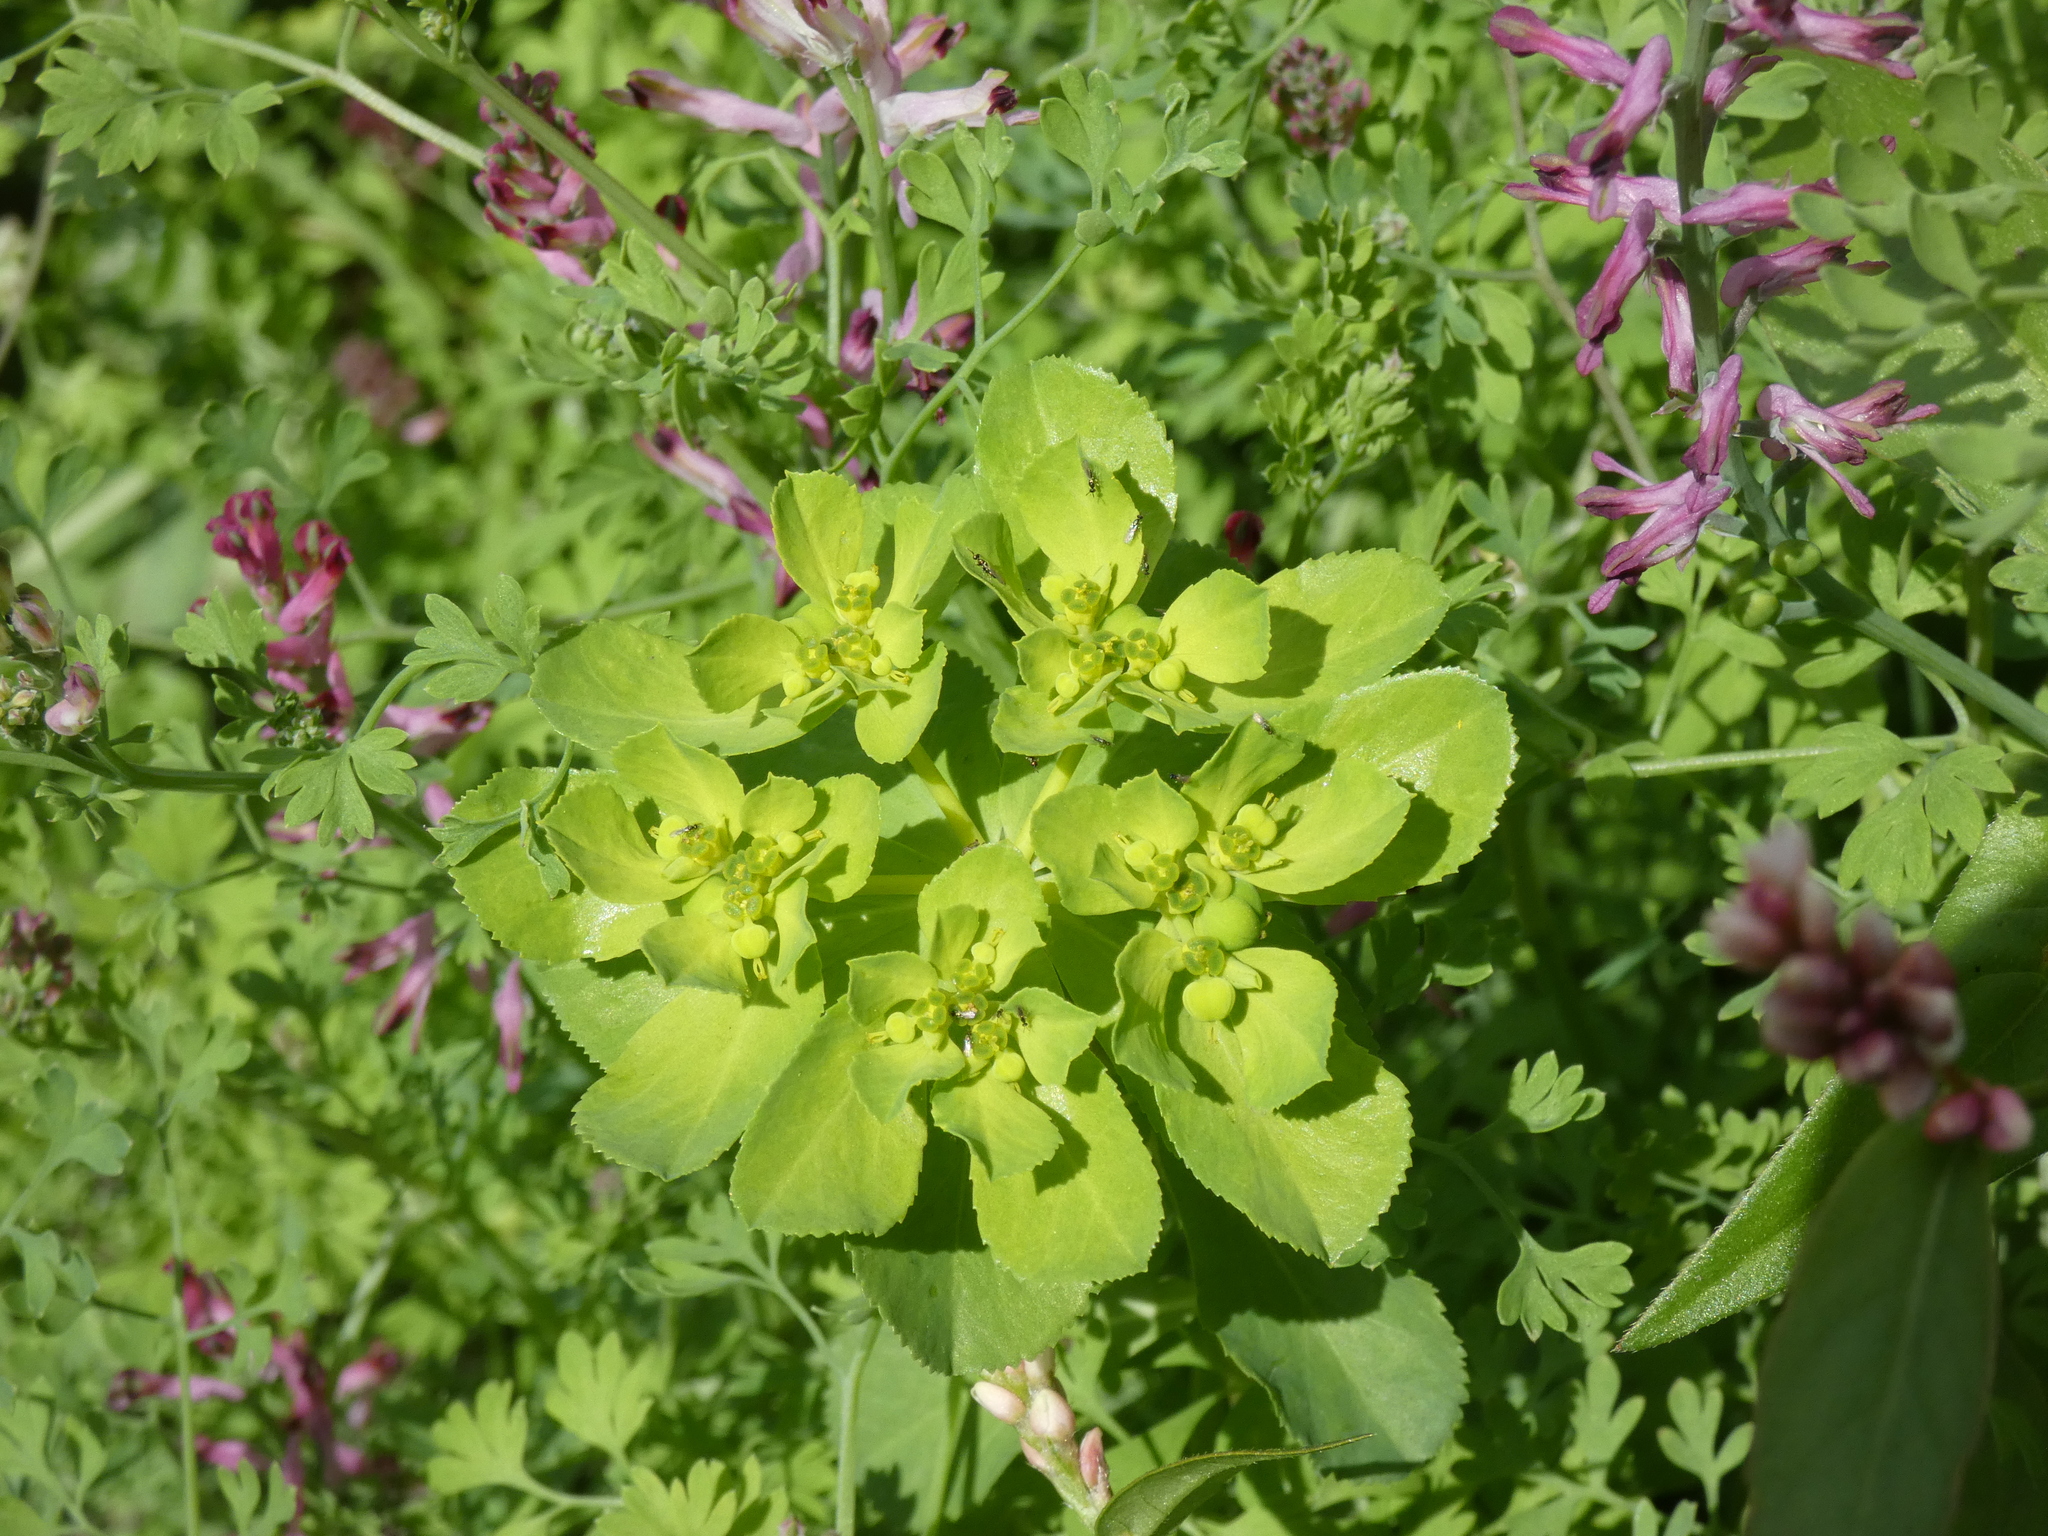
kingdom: Plantae
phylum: Tracheophyta
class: Magnoliopsida
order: Malpighiales
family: Euphorbiaceae
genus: Euphorbia
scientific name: Euphorbia helioscopia
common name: Sun spurge
